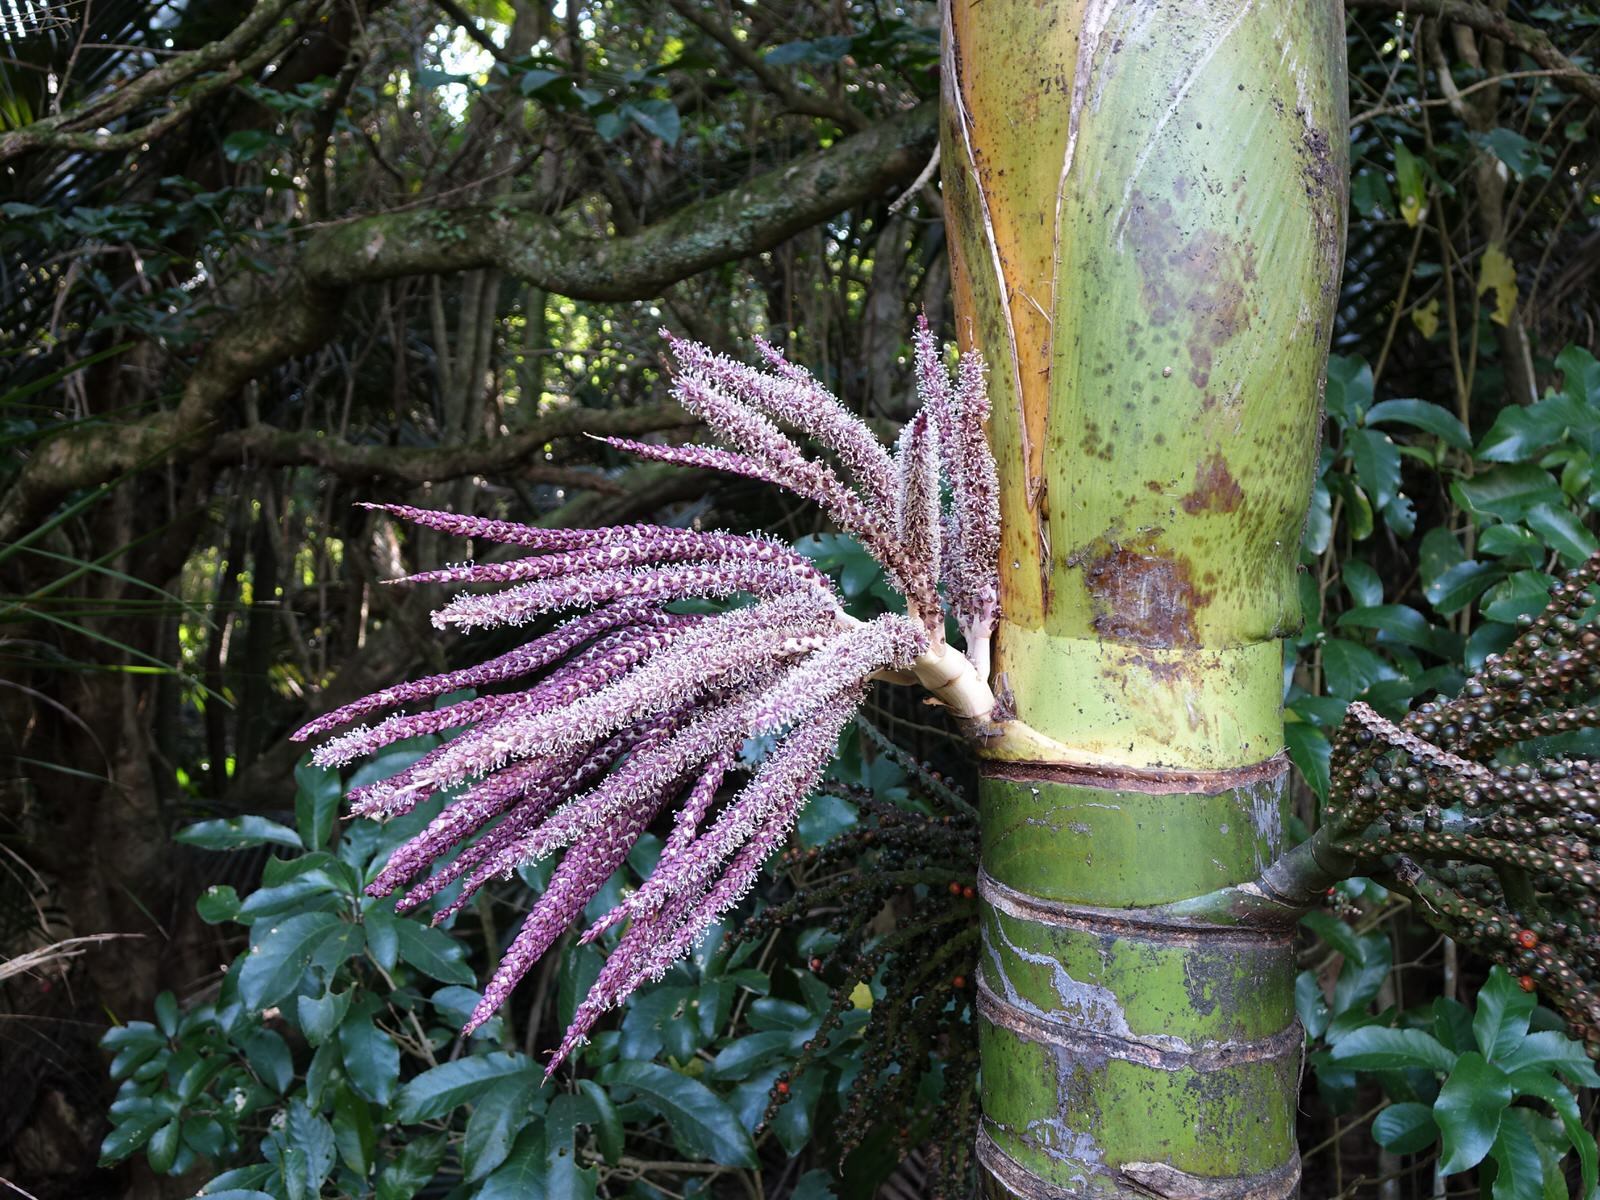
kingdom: Plantae
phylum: Tracheophyta
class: Liliopsida
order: Arecales
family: Arecaceae
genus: Rhopalostylis
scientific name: Rhopalostylis sapida
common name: Feather-duster palm
